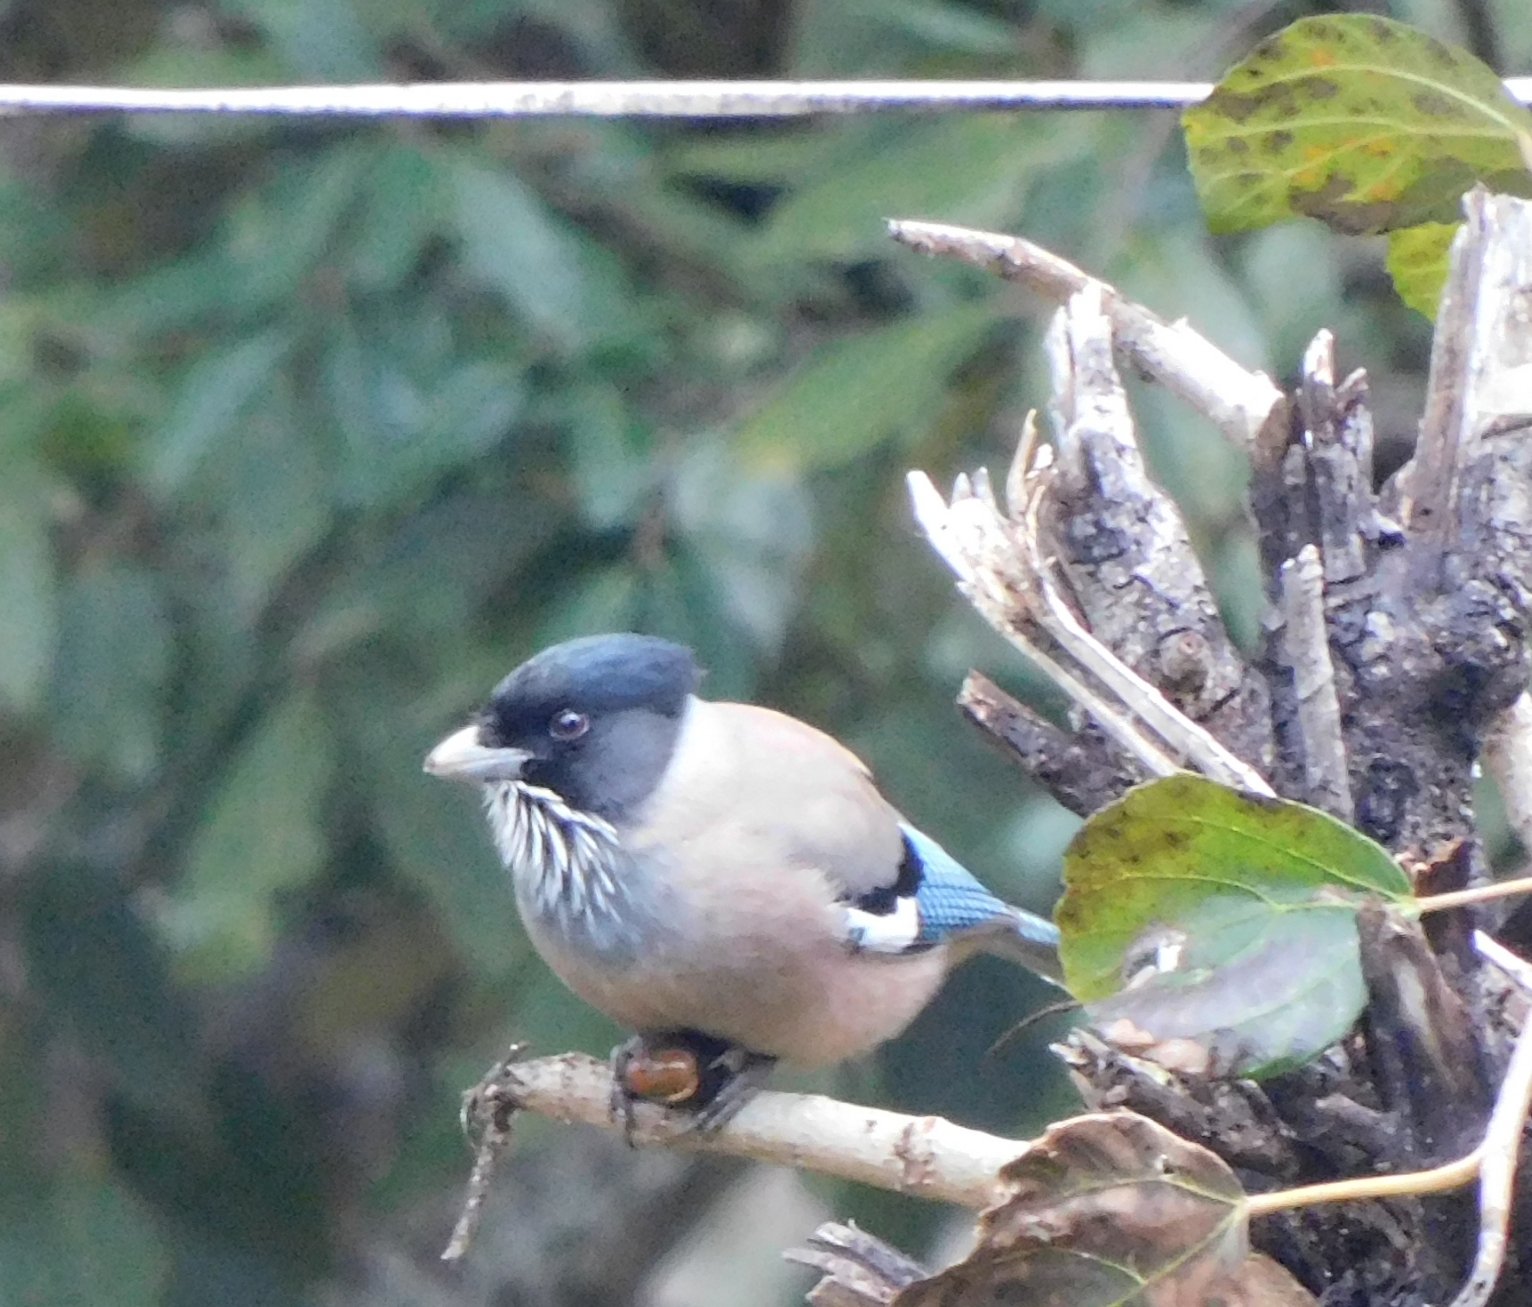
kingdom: Animalia
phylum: Chordata
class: Aves
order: Passeriformes
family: Corvidae
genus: Garrulus
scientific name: Garrulus lanceolatus
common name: Black-headed jay
